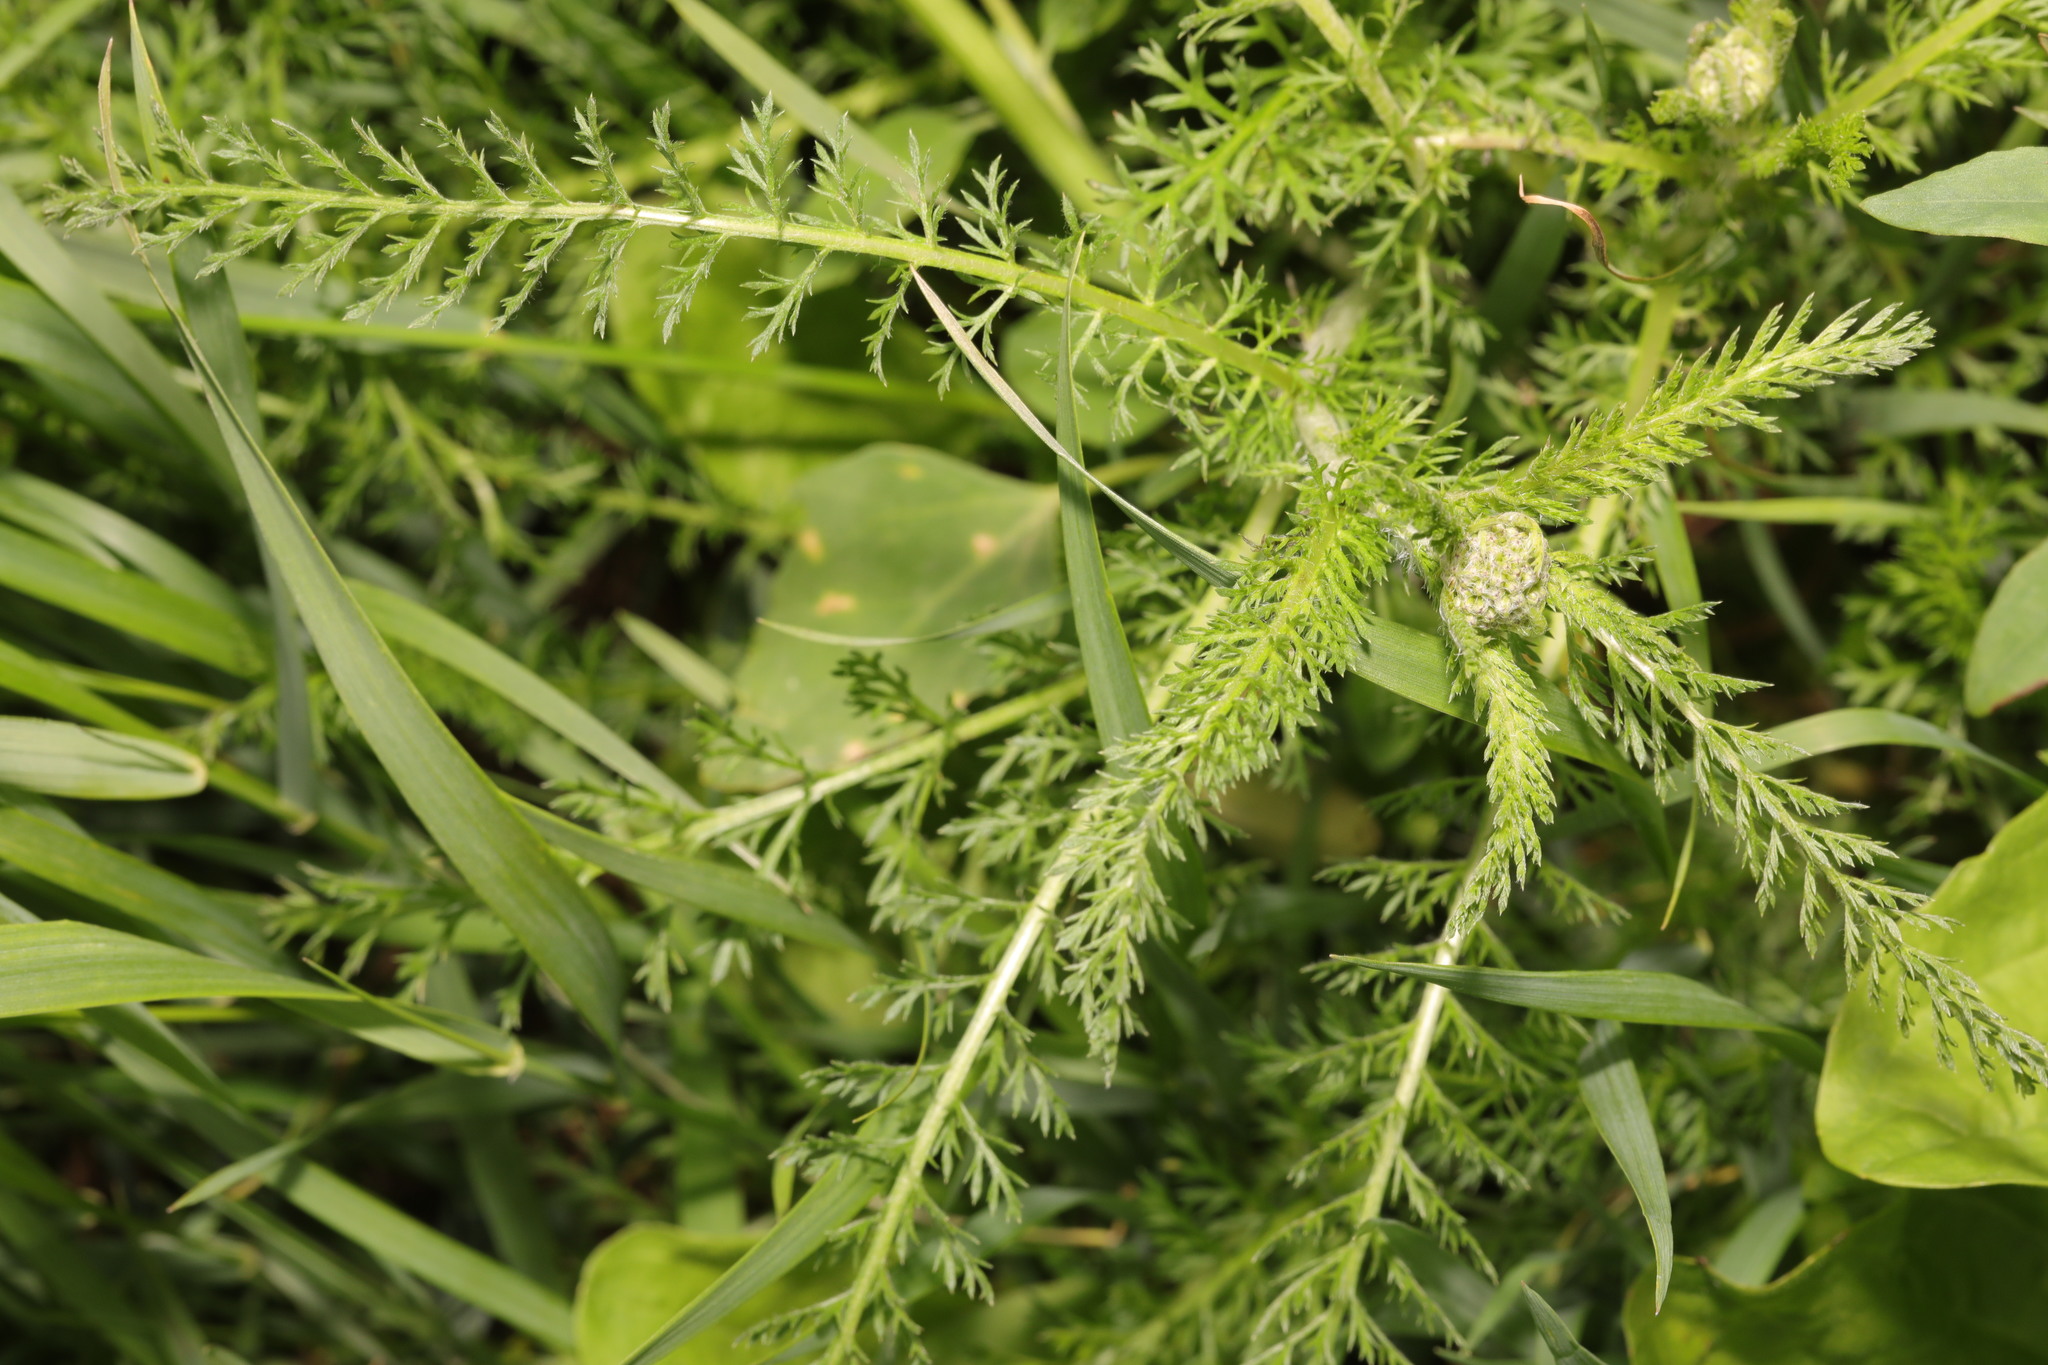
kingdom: Plantae
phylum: Tracheophyta
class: Magnoliopsida
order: Asterales
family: Asteraceae
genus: Achillea
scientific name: Achillea millefolium
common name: Yarrow
